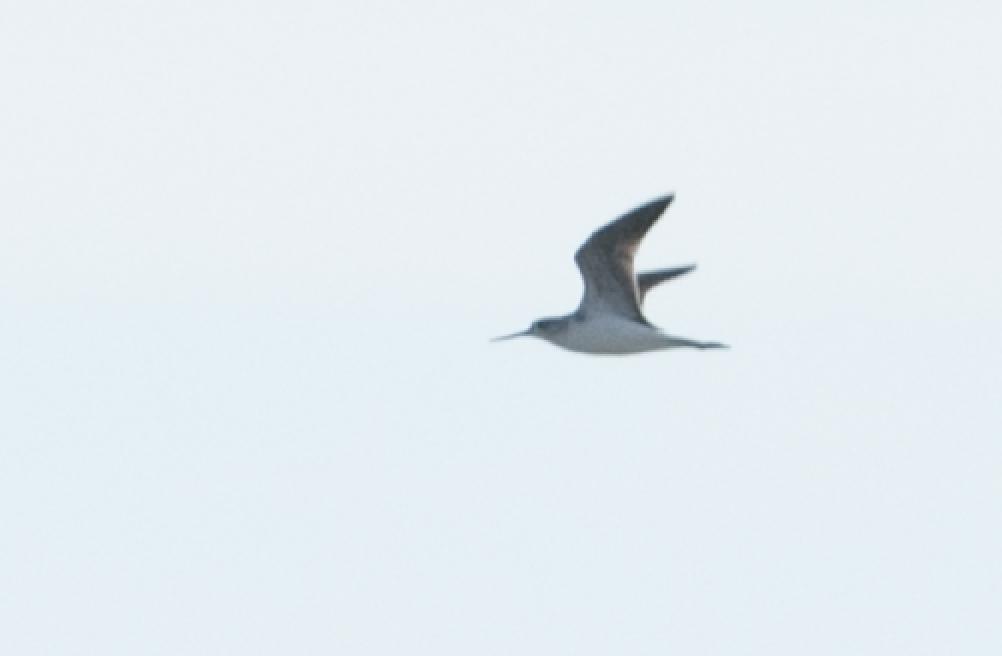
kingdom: Animalia
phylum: Chordata
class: Aves
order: Charadriiformes
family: Scolopacidae
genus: Tringa
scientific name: Tringa nebularia
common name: Common greenshank
